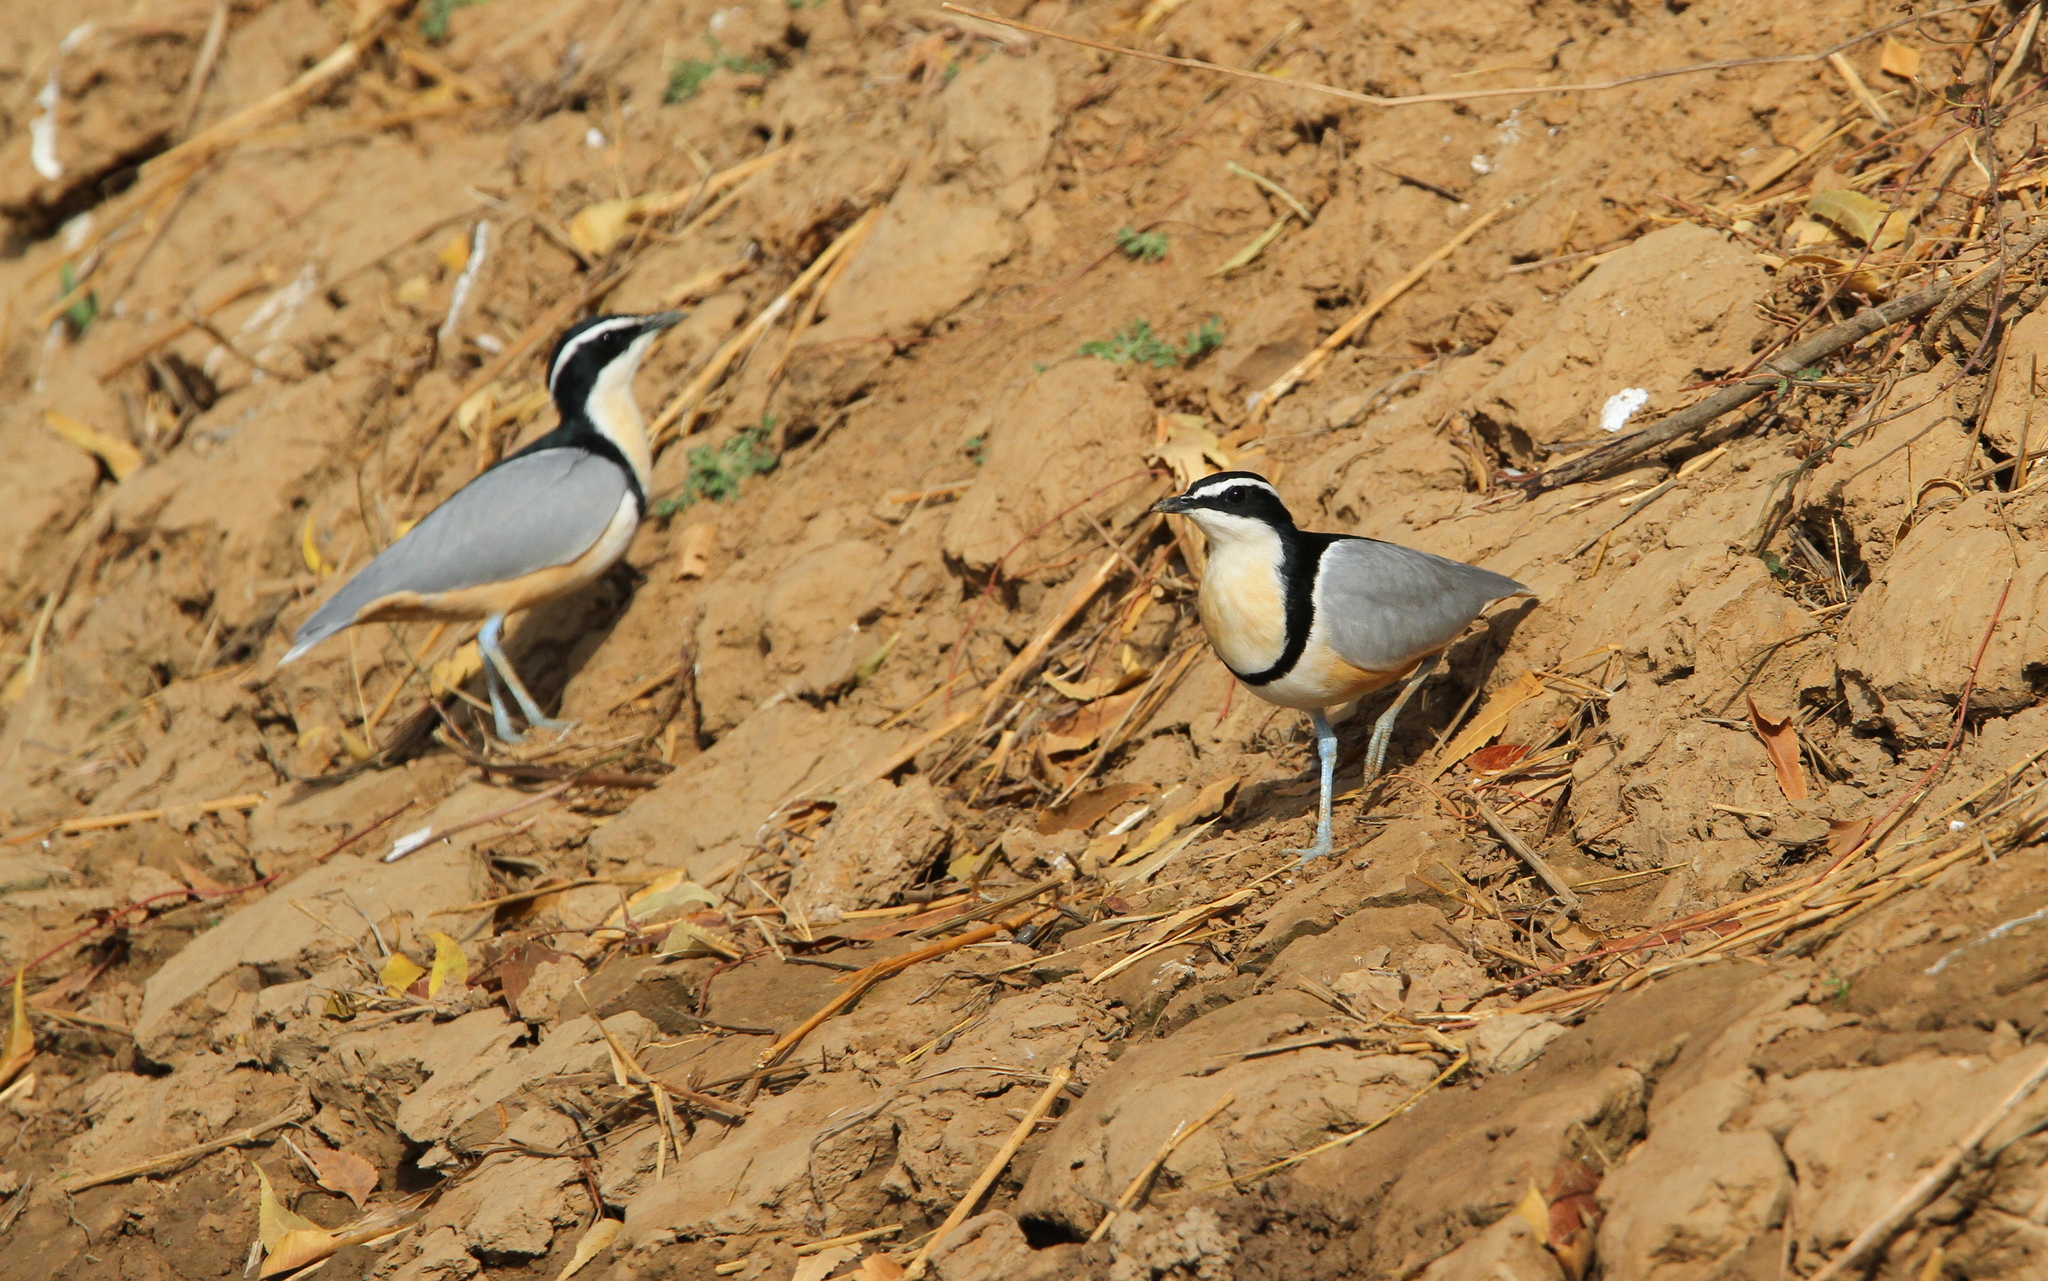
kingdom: Animalia
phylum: Chordata
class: Aves
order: Charadriiformes
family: Pluvianidae
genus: Pluvianus
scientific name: Pluvianus aegyptius
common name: Egyptian plover
